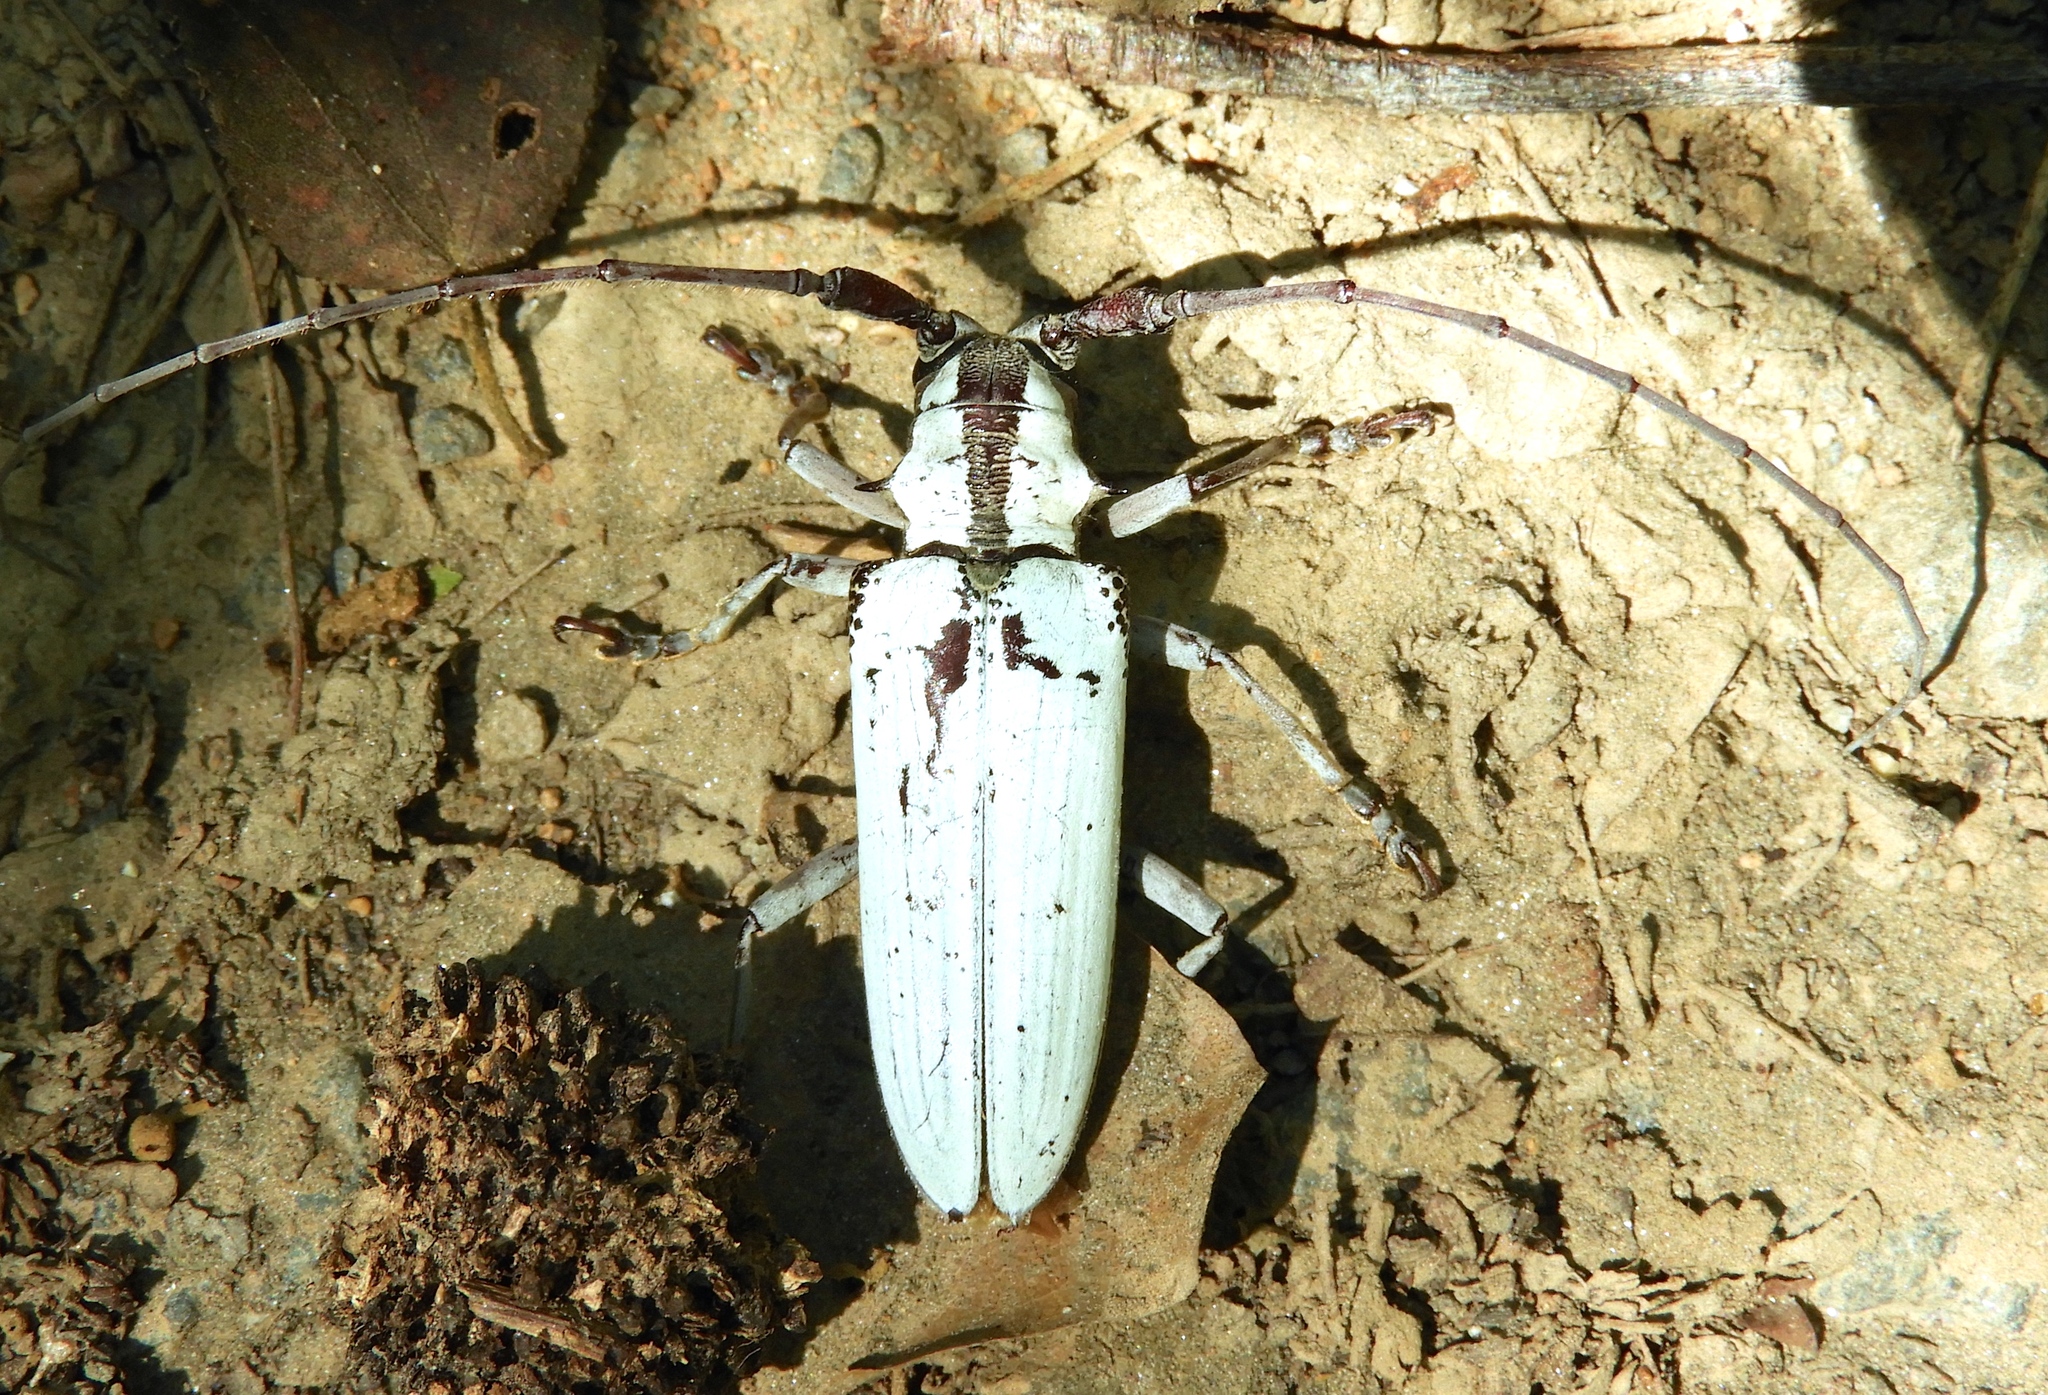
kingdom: Animalia
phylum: Arthropoda
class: Insecta
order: Coleoptera
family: Cerambycidae
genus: Deliathis
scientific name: Deliathis
